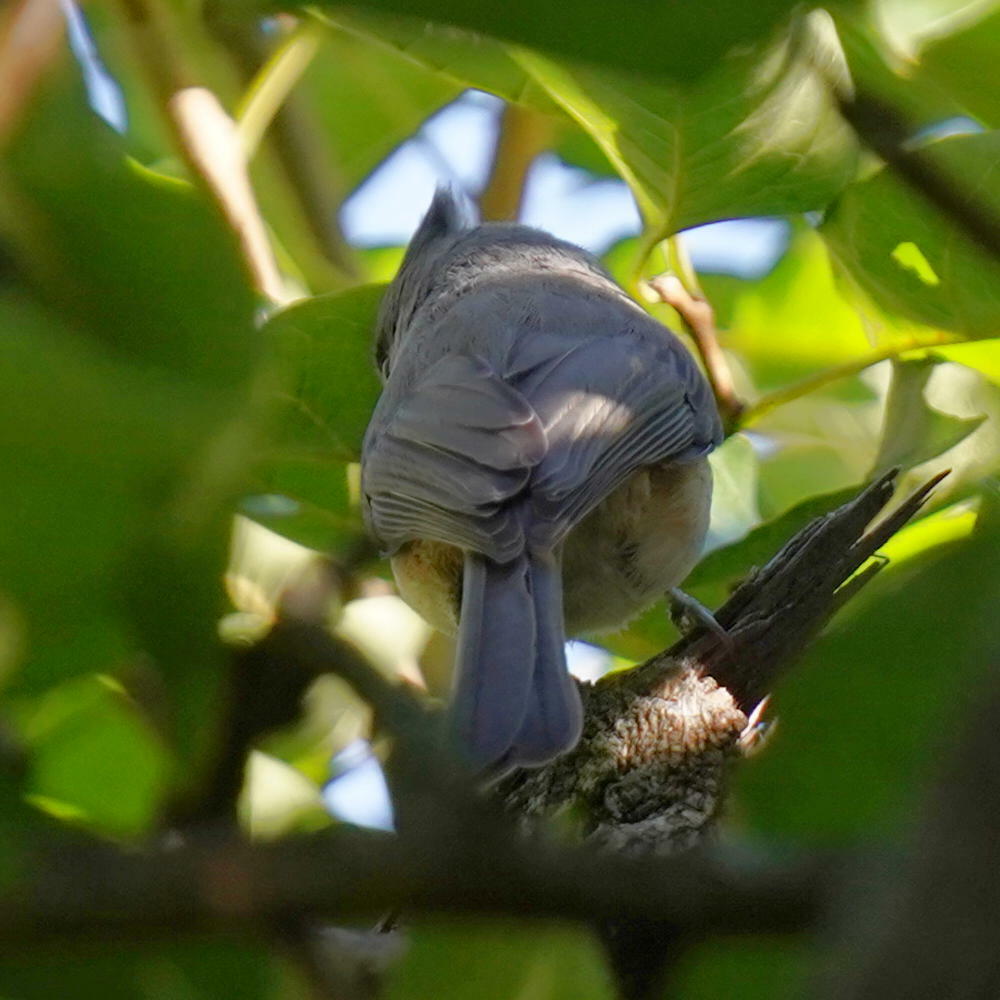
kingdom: Animalia
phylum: Chordata
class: Aves
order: Passeriformes
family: Paridae
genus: Baeolophus
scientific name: Baeolophus bicolor
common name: Tufted titmouse
